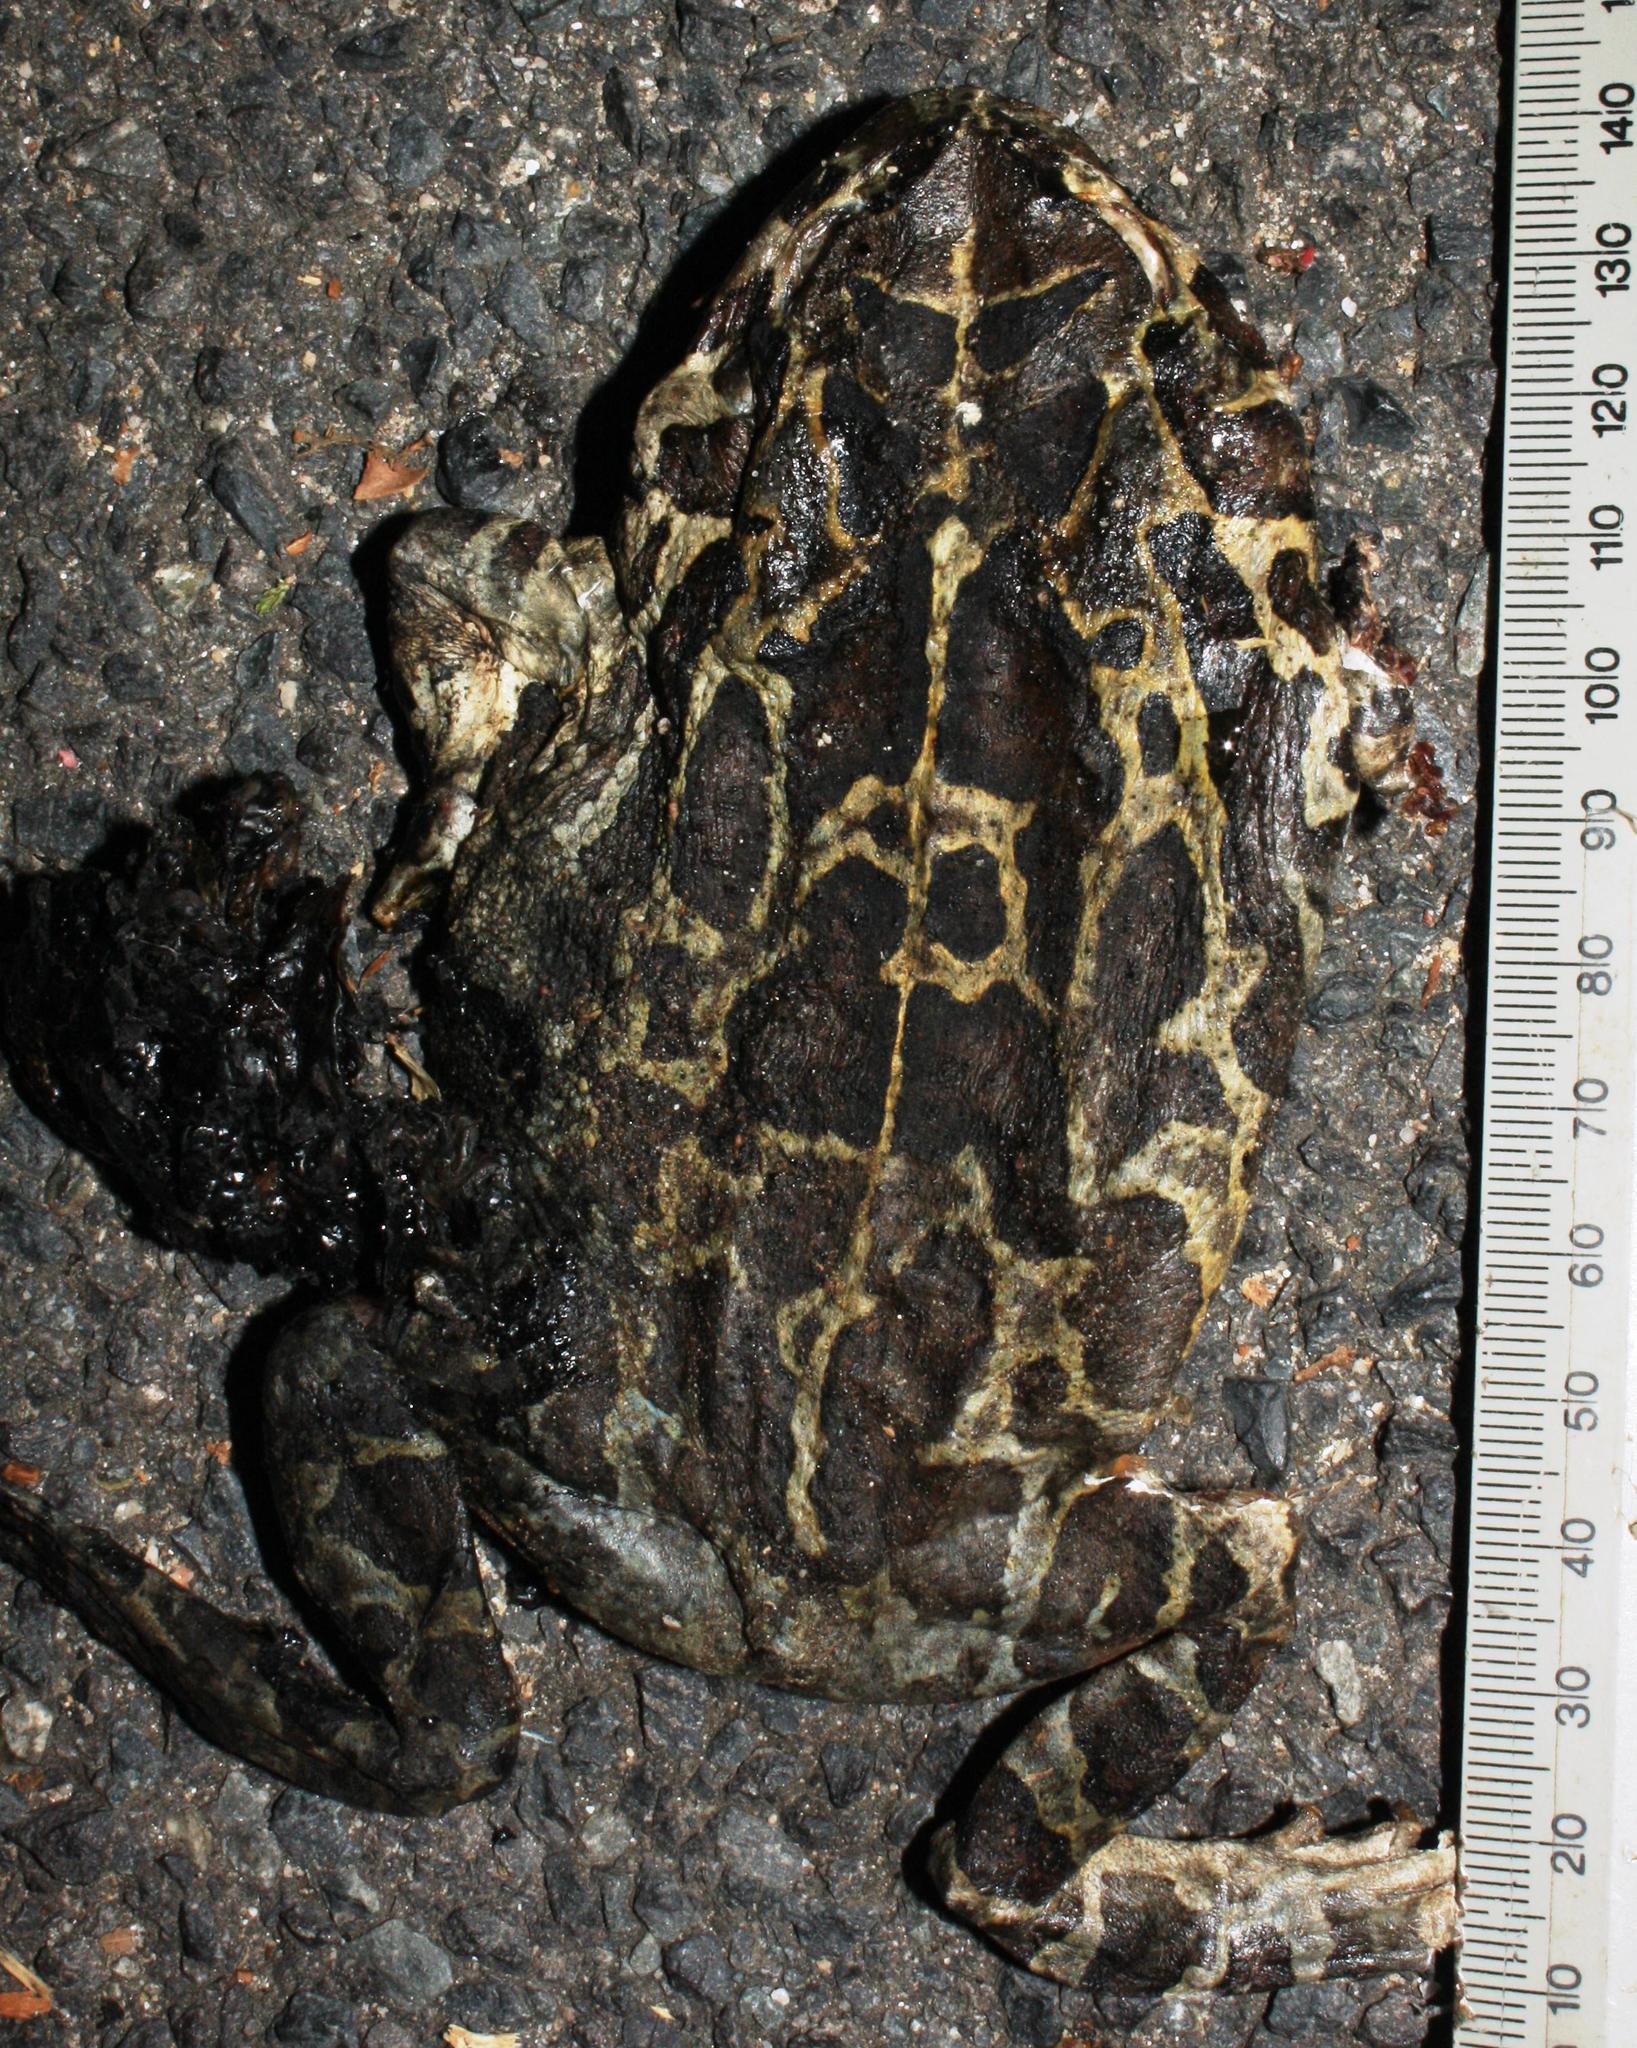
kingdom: Animalia
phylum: Chordata
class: Amphibia
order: Anura
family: Bufonidae
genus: Sclerophrys
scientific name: Sclerophrys pantherina
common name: Panther toad
